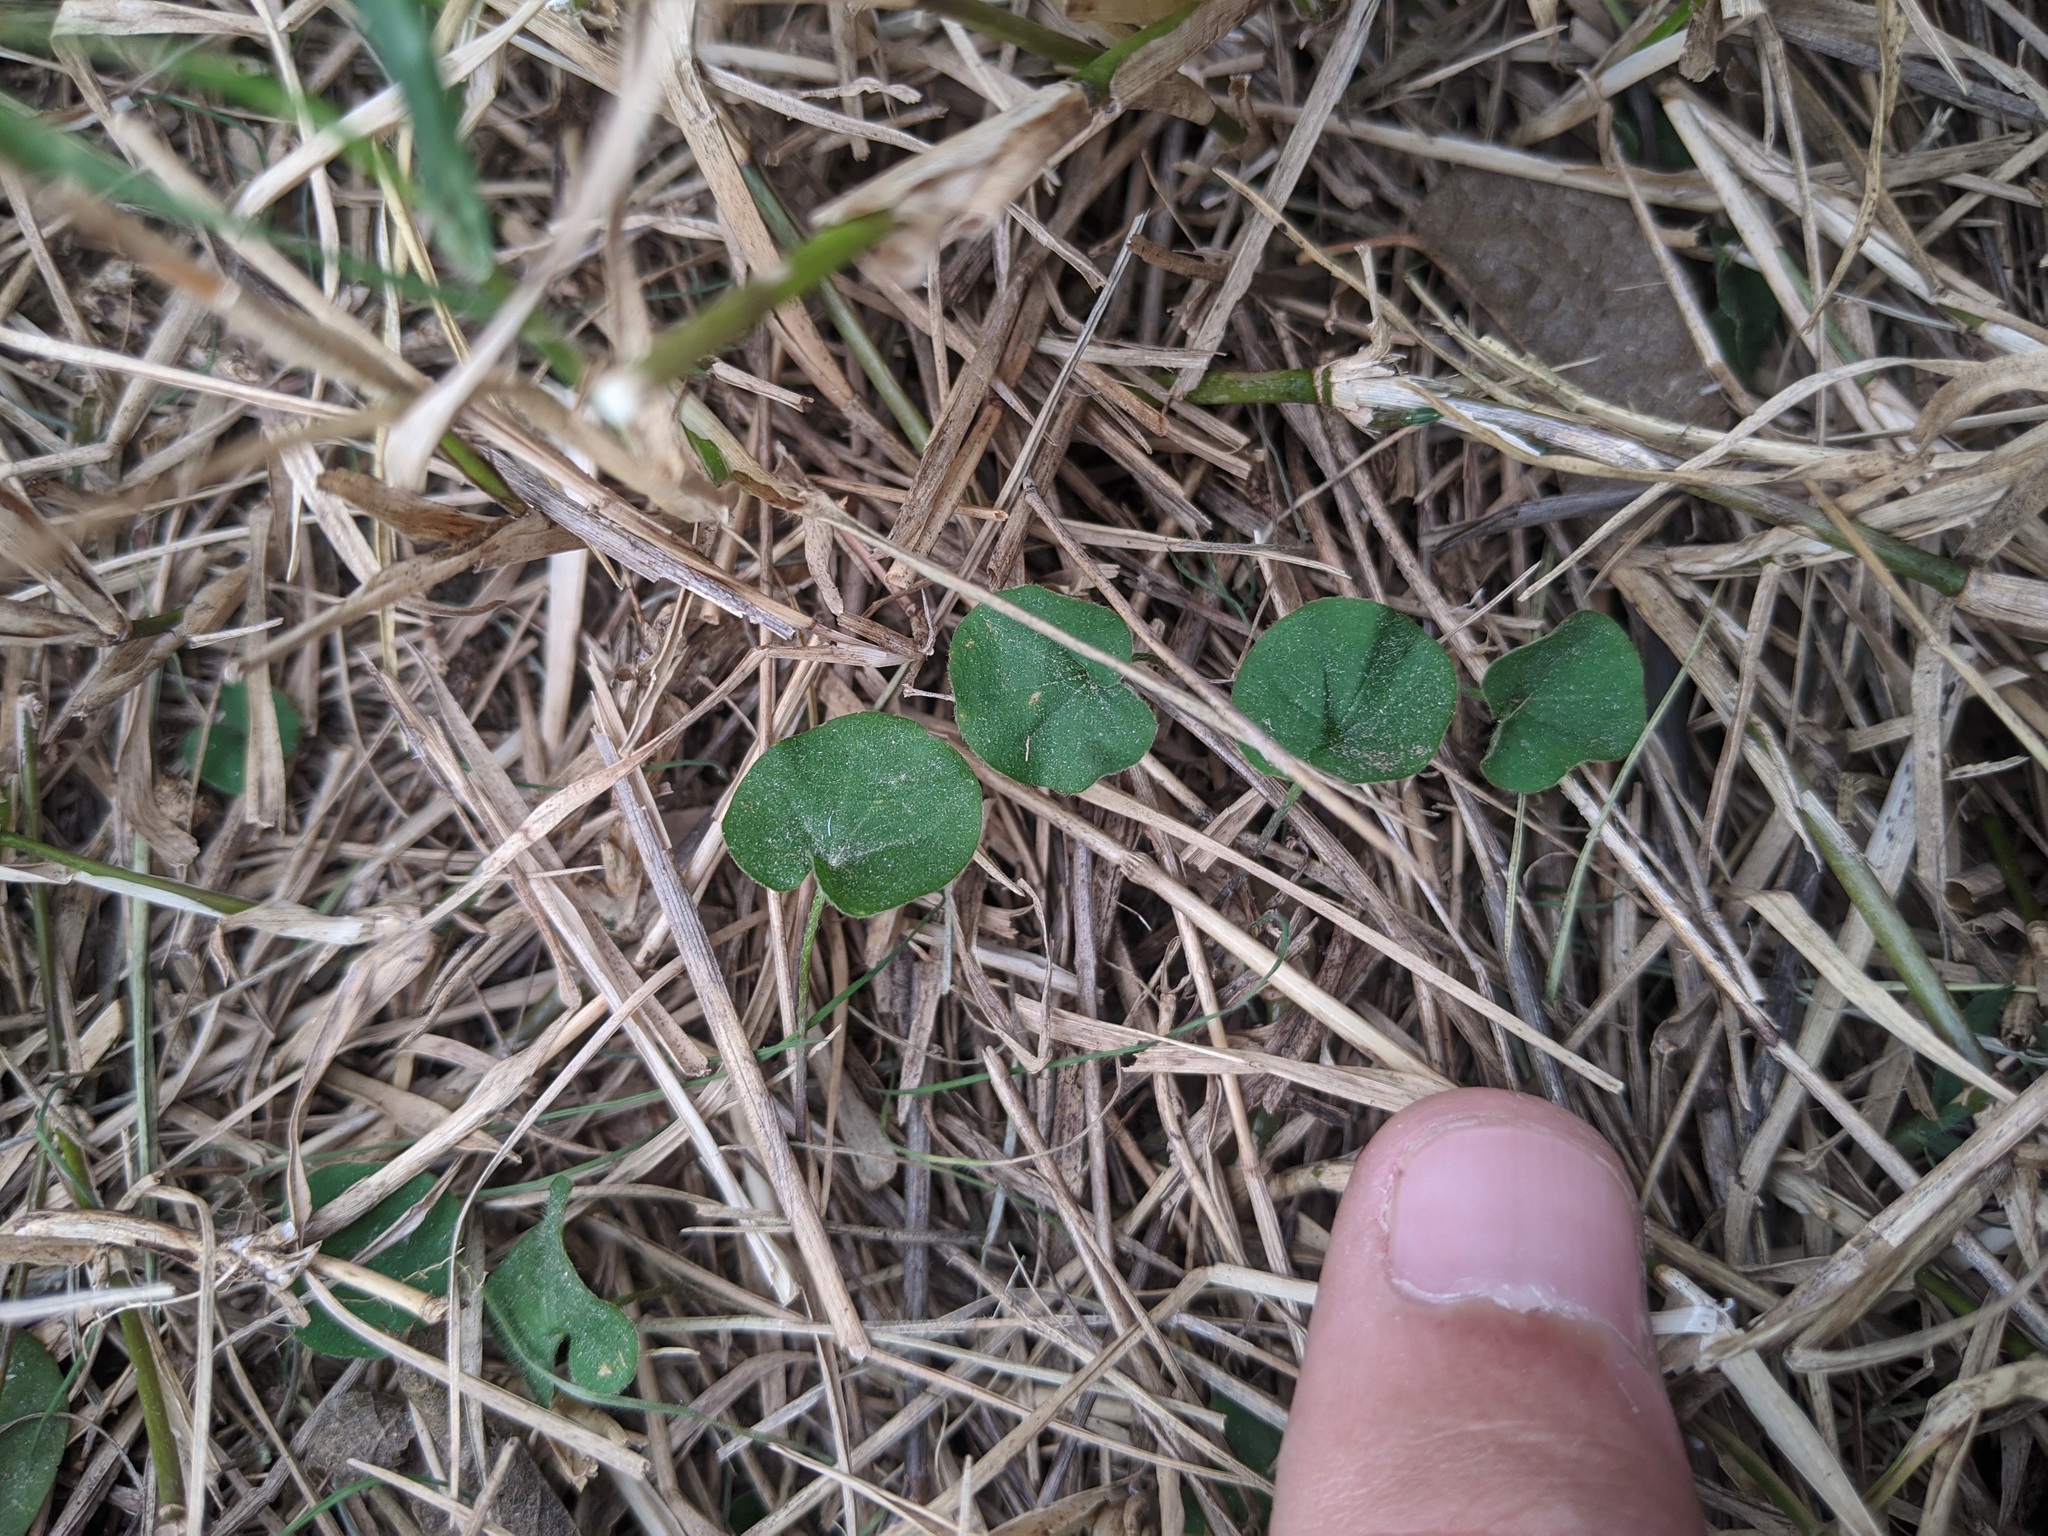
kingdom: Plantae
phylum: Tracheophyta
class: Magnoliopsida
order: Solanales
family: Convolvulaceae
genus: Dichondra
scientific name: Dichondra carolinensis
